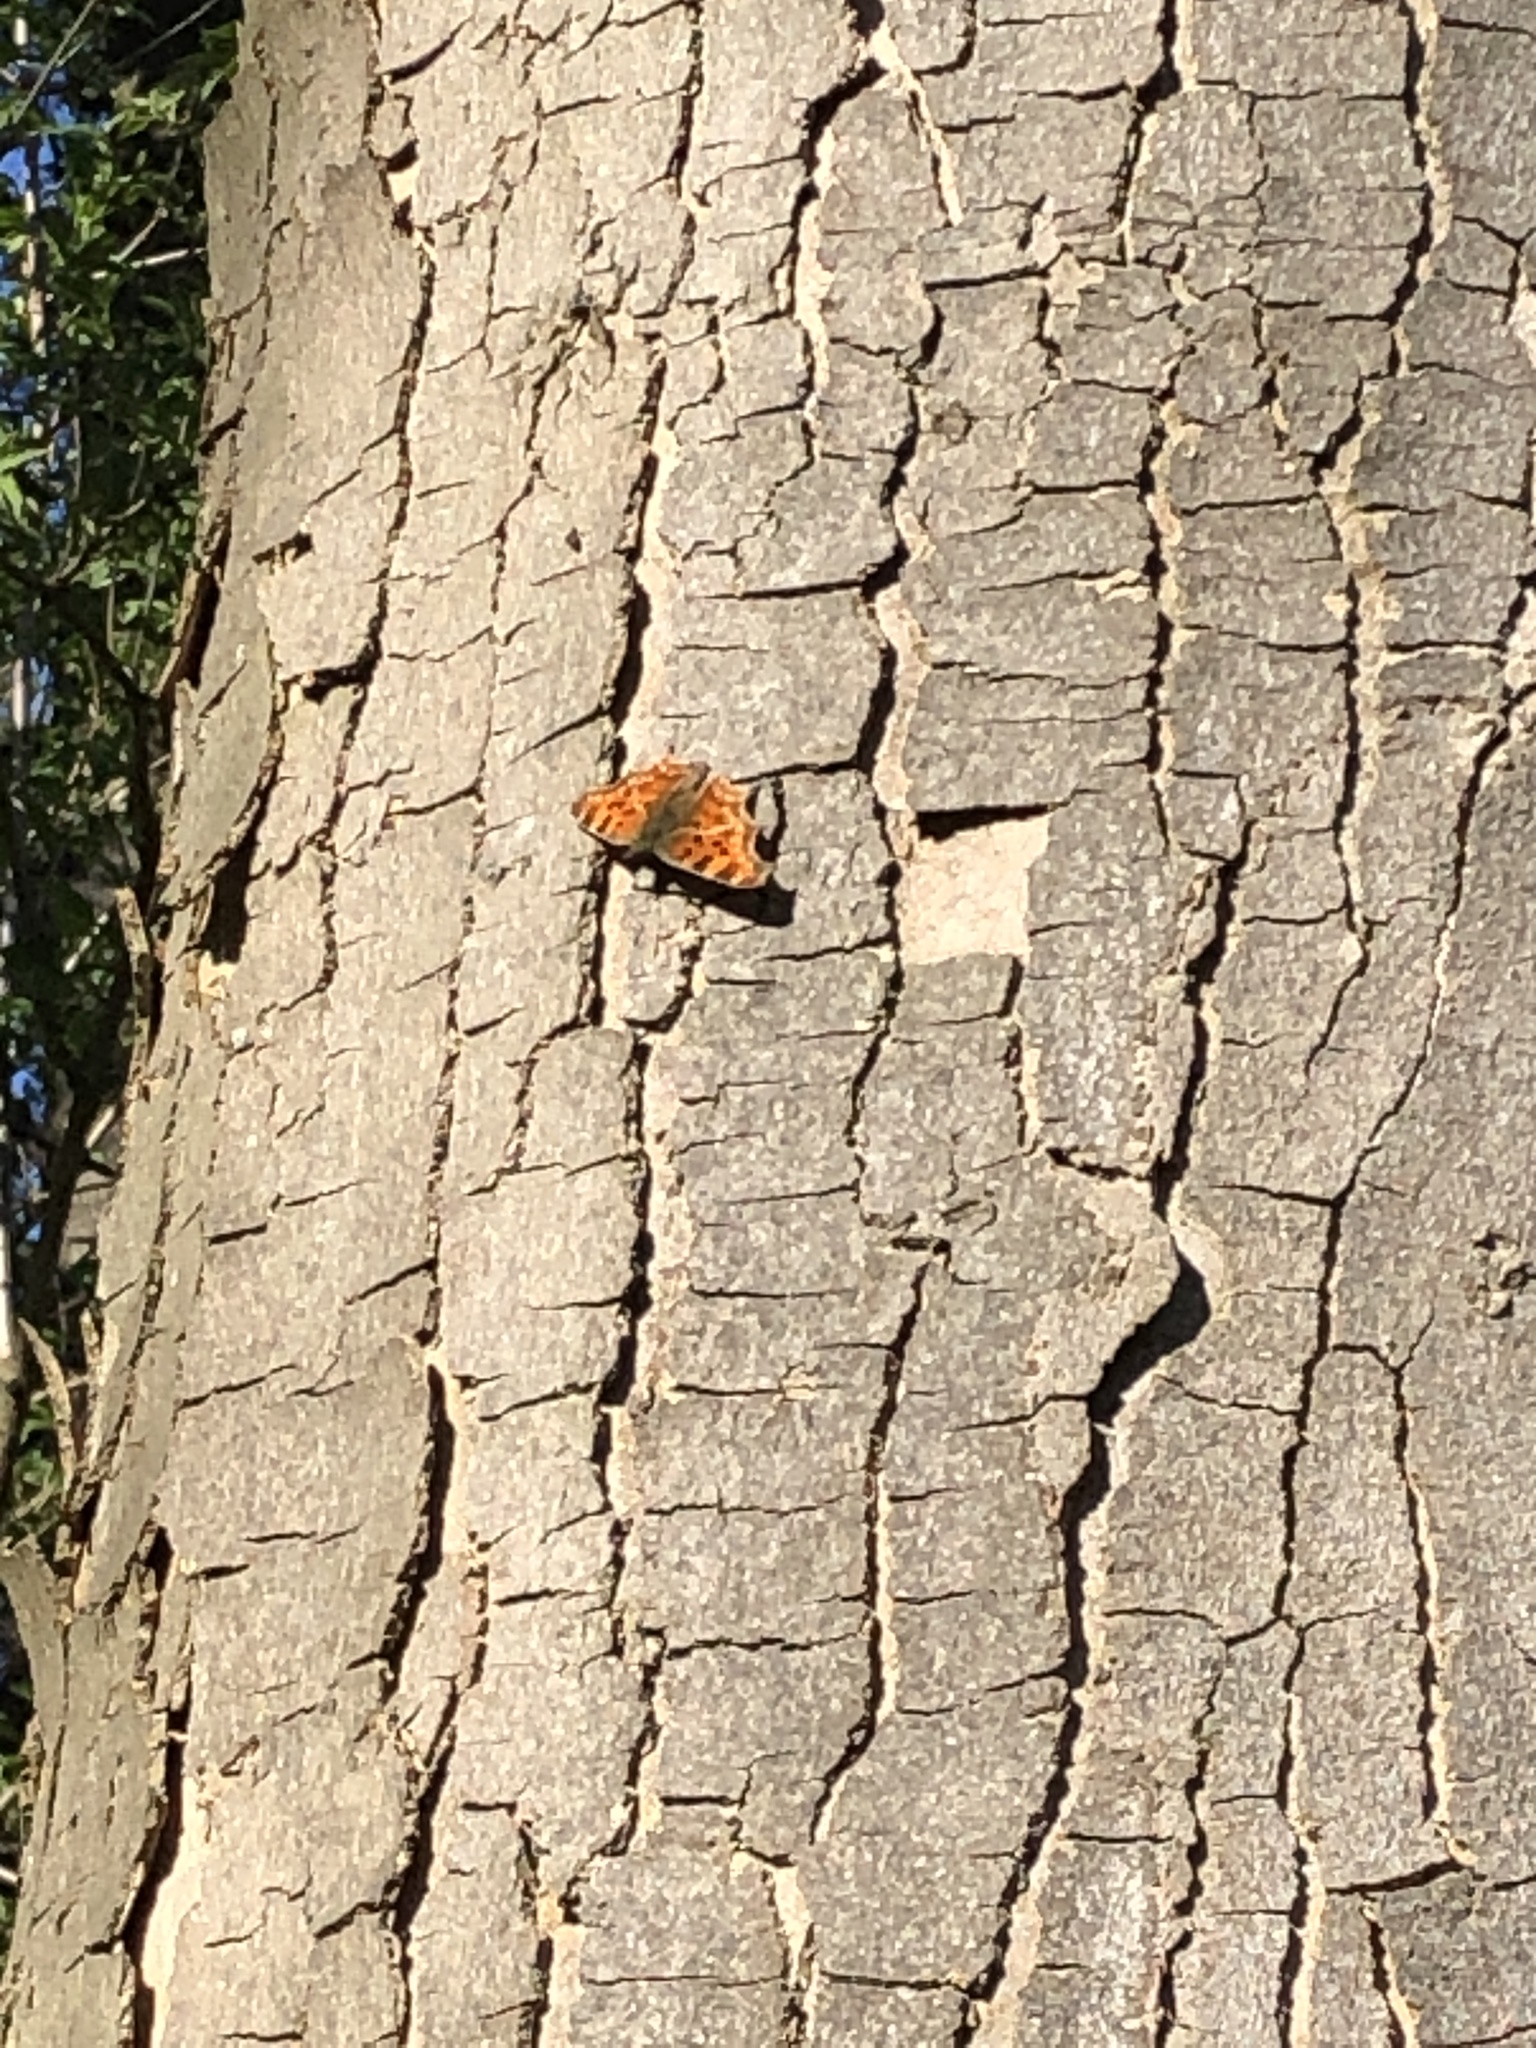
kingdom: Animalia
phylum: Arthropoda
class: Insecta
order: Lepidoptera
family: Nymphalidae
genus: Polygonia
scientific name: Polygonia c-album
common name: Comma
